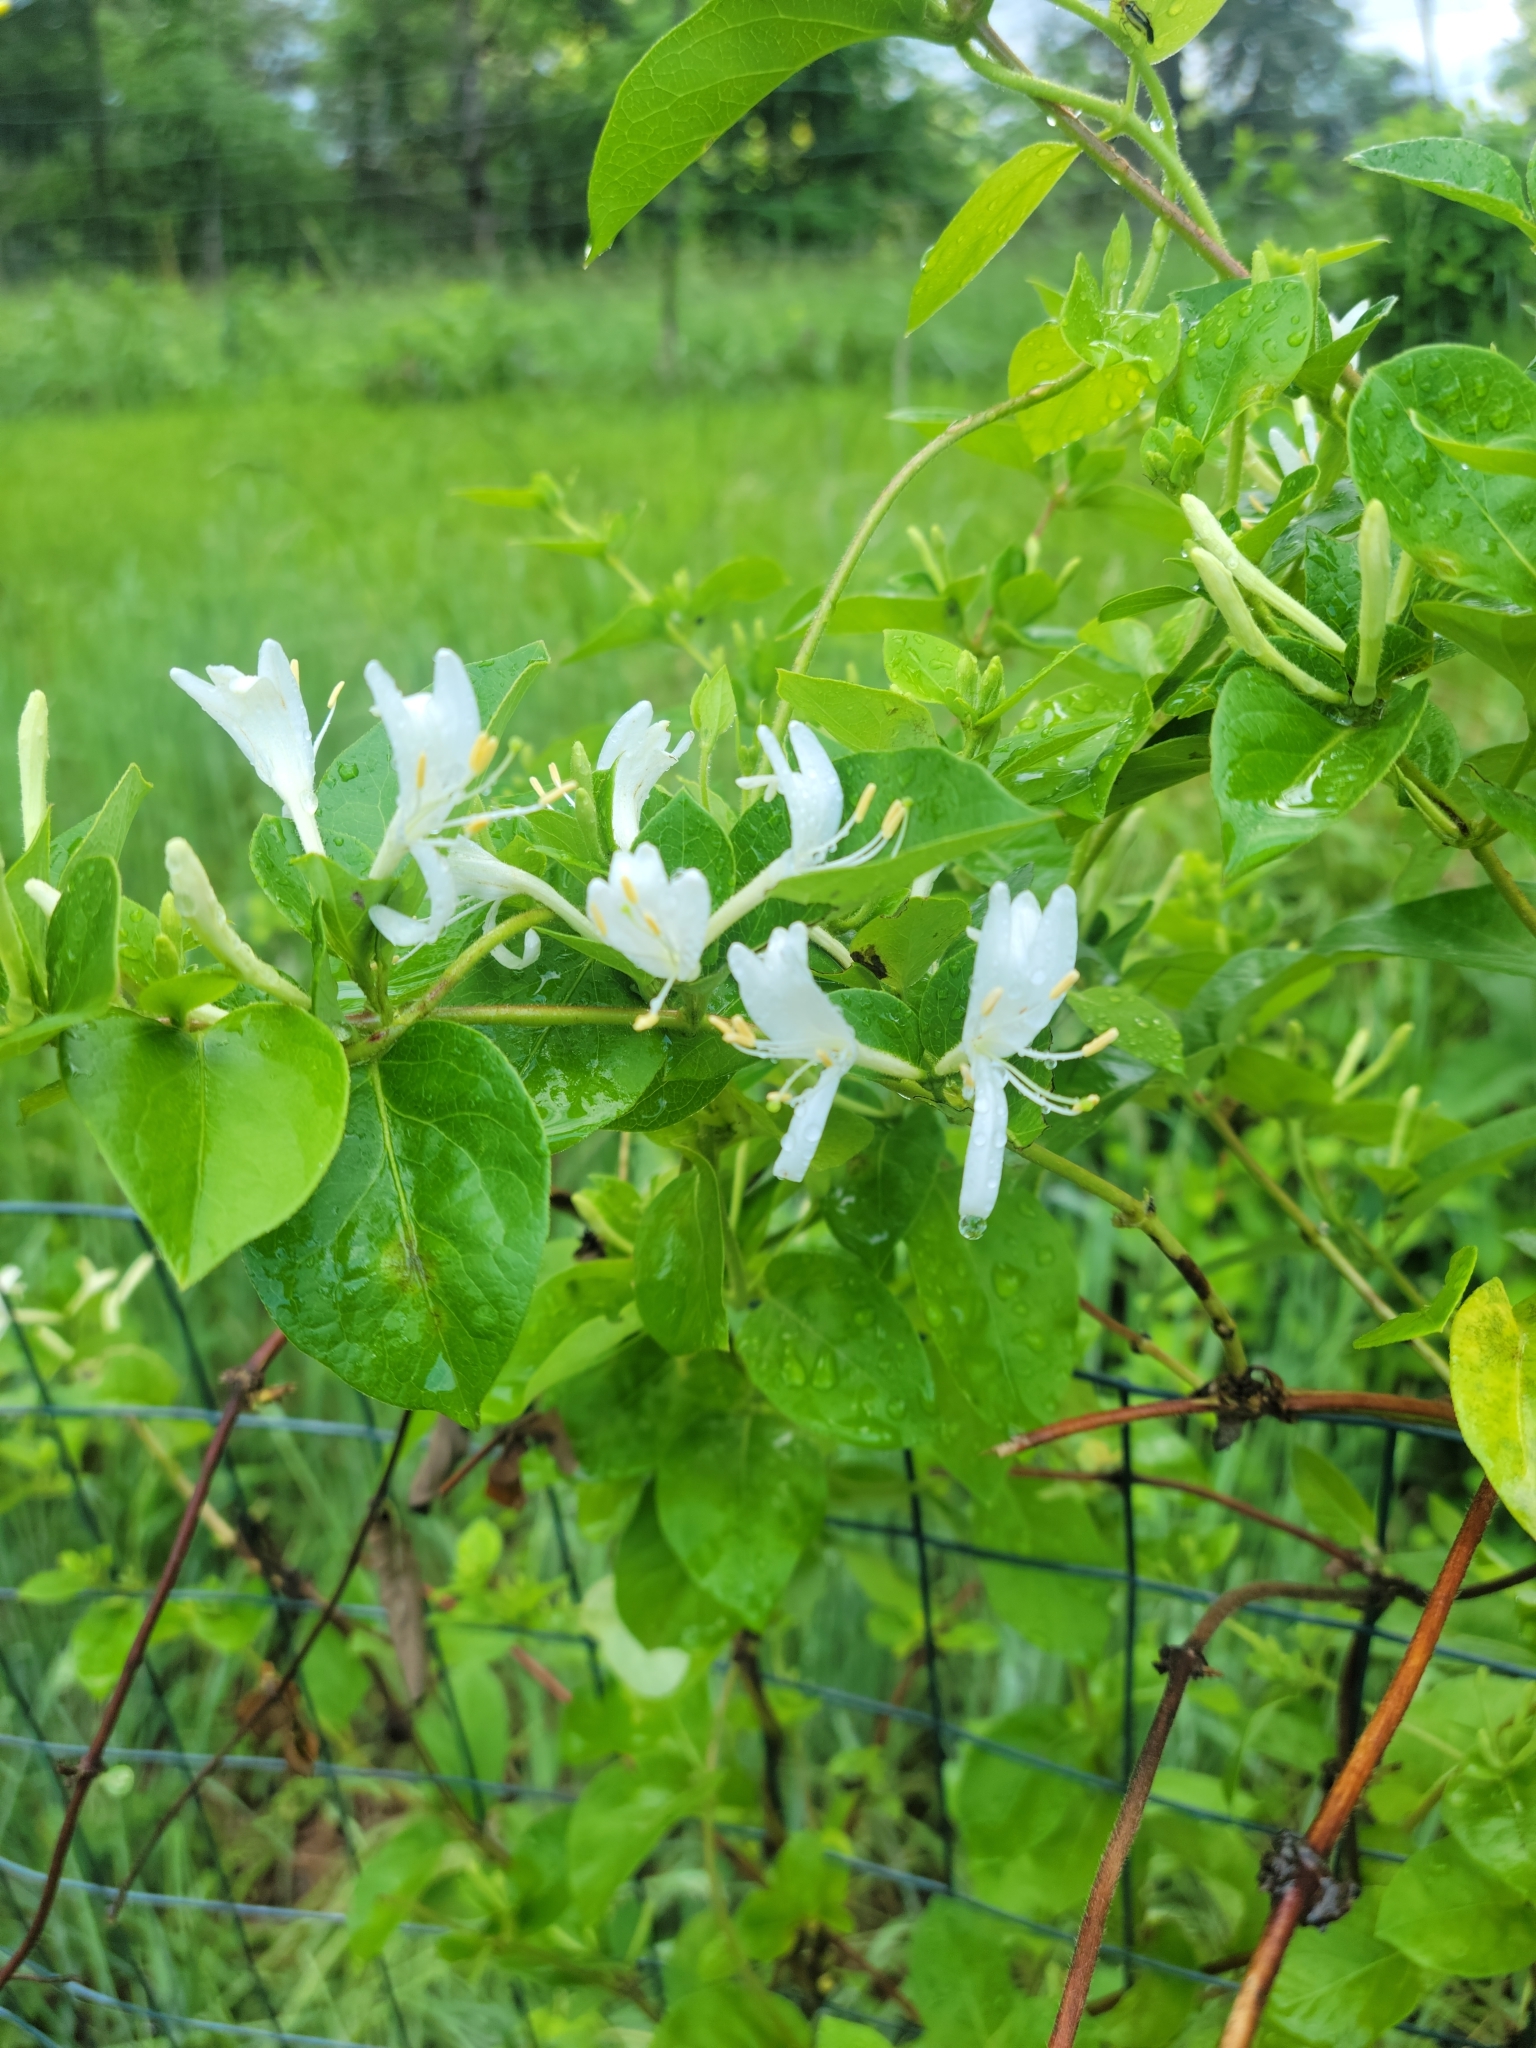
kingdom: Plantae
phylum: Tracheophyta
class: Magnoliopsida
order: Dipsacales
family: Caprifoliaceae
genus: Lonicera
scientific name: Lonicera japonica
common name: Japanese honeysuckle
